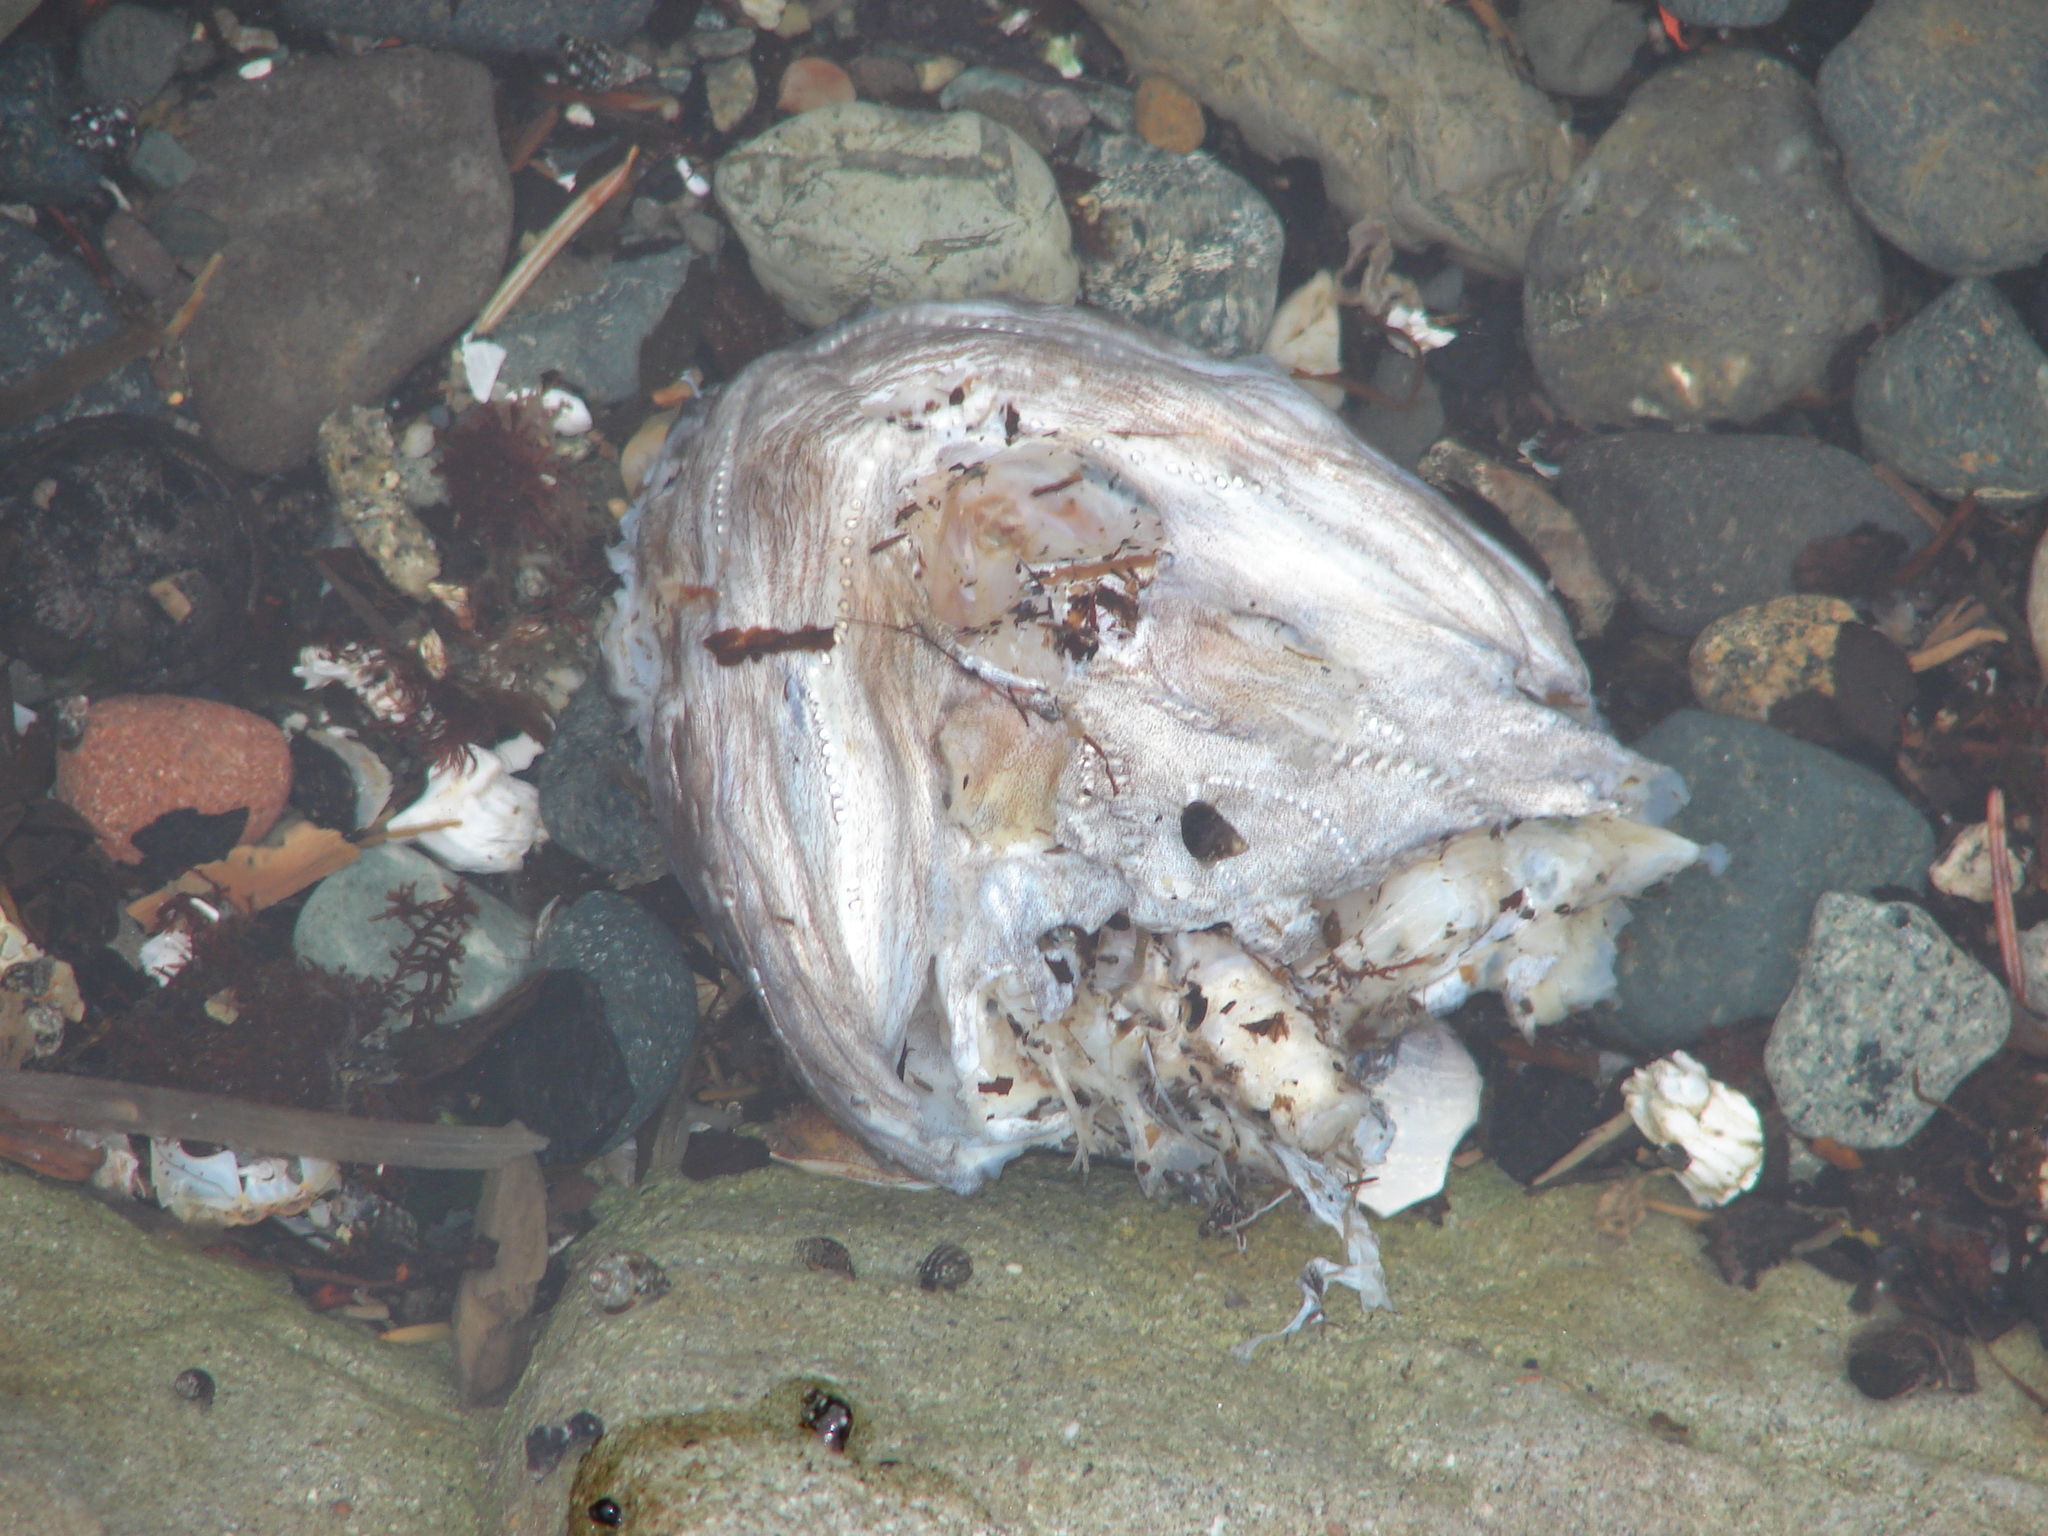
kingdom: Animalia
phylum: Chordata
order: Batrachoidiformes
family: Batrachoididae
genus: Porichthys
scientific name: Porichthys notatus
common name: Plainfin midshipman
